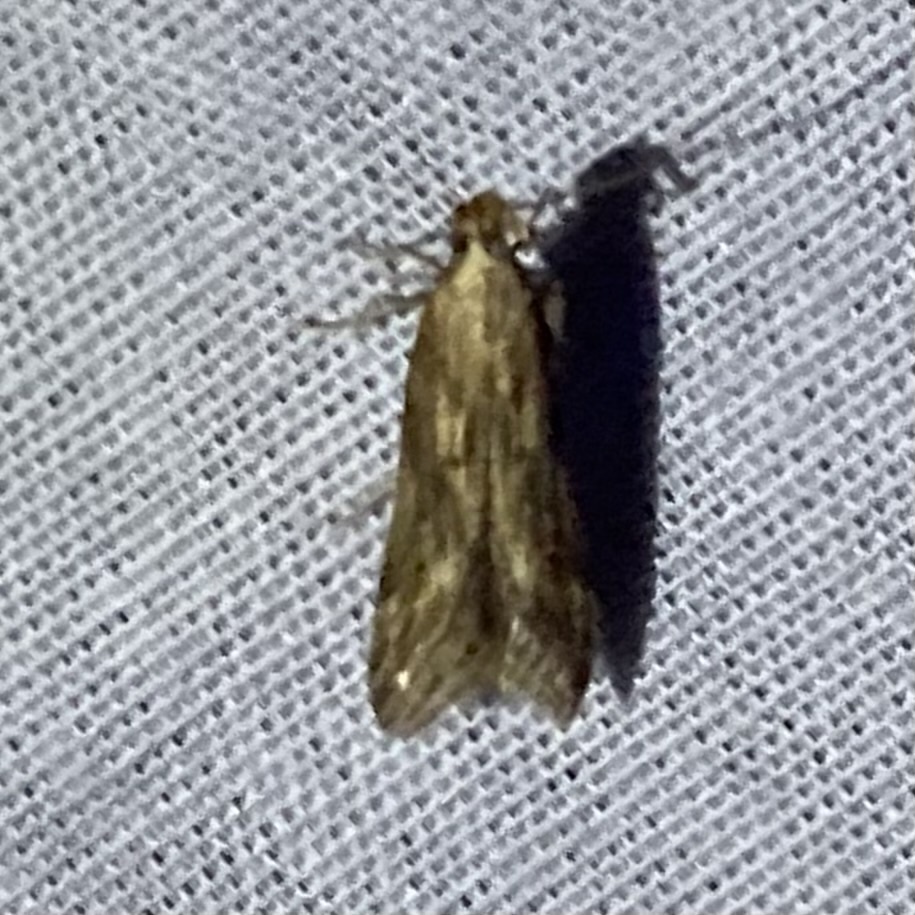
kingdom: Animalia
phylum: Arthropoda
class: Insecta
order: Lepidoptera
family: Gelechiidae
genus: Metzneria
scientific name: Metzneria lappella
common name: Burdock neb
